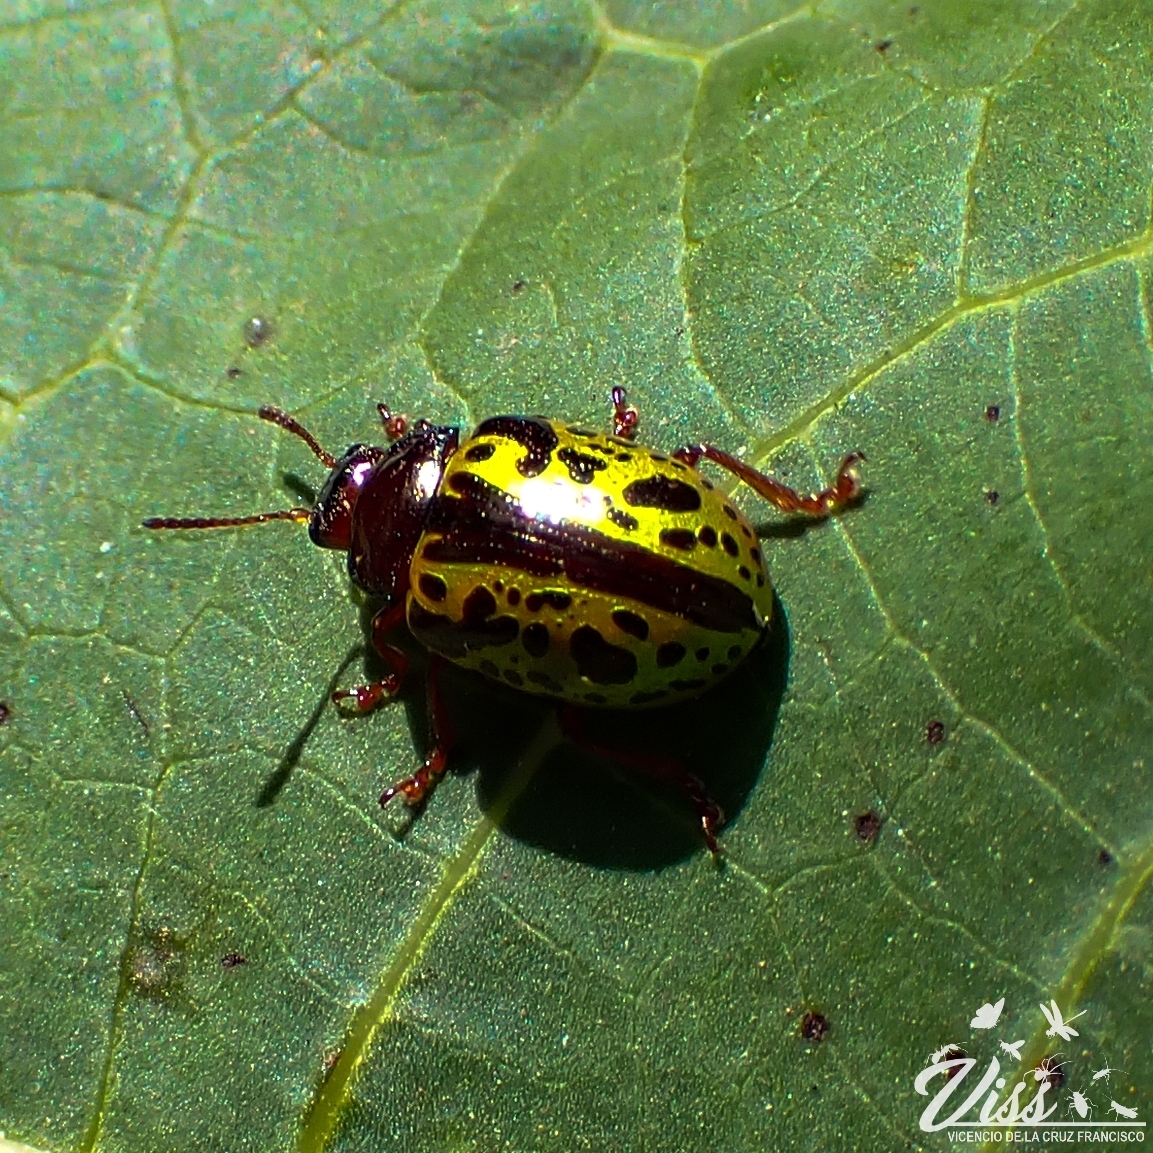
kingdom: Animalia
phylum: Arthropoda
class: Insecta
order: Coleoptera
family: Chrysomelidae
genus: Calligrapha
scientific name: Calligrapha pantherina
